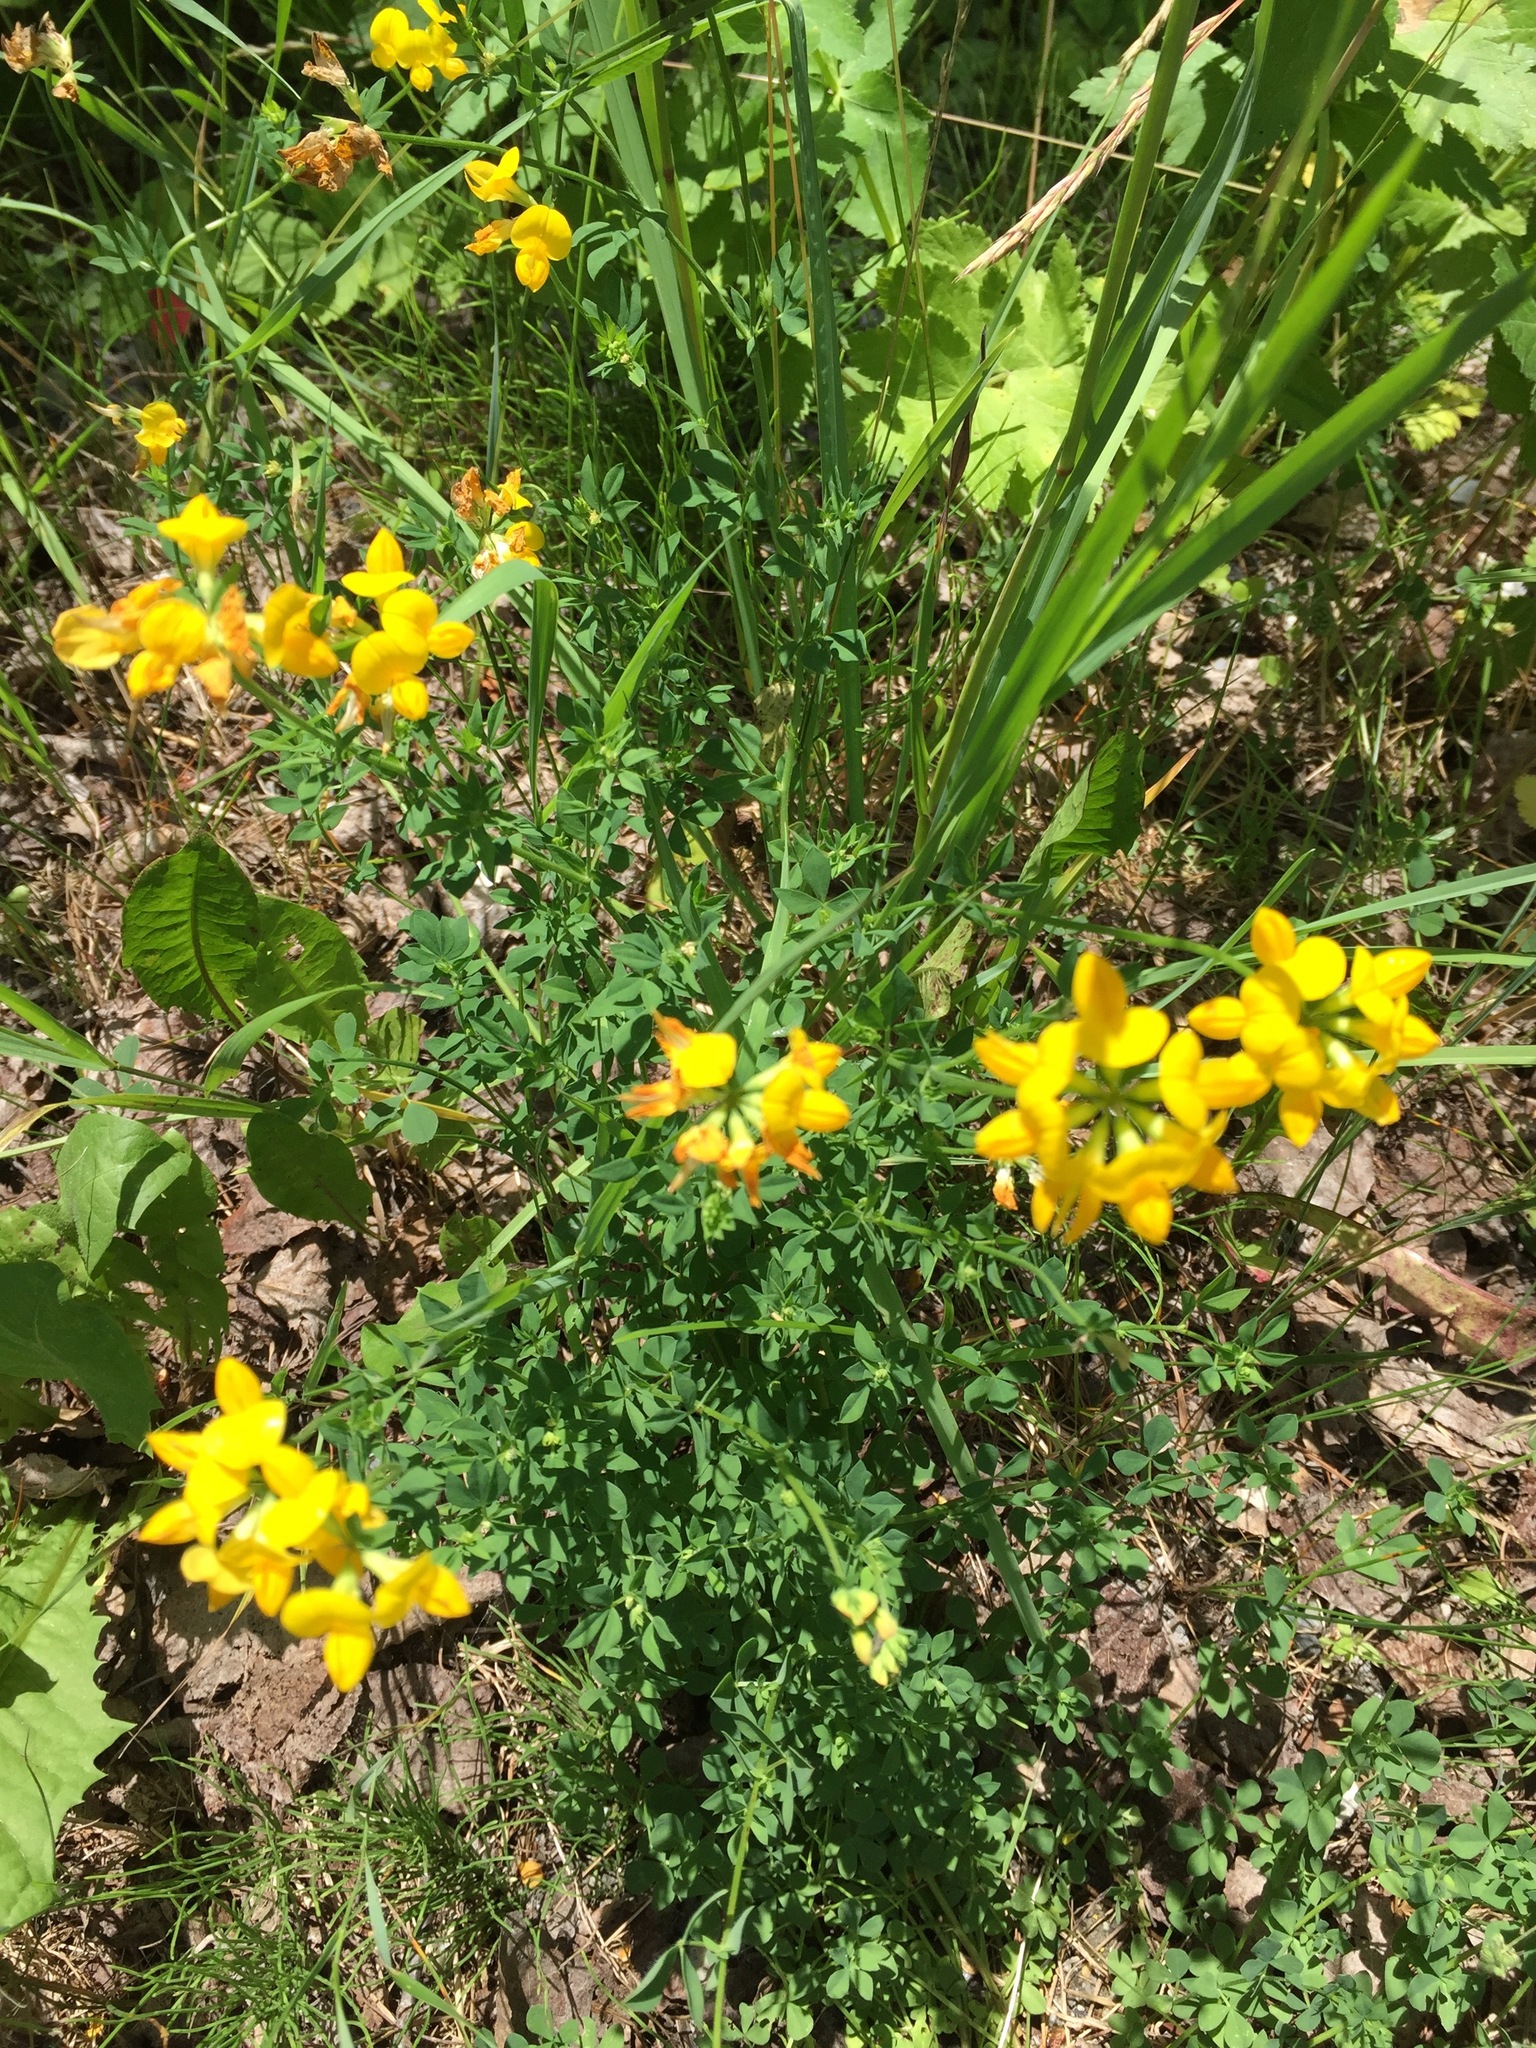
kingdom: Plantae
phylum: Tracheophyta
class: Magnoliopsida
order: Fabales
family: Fabaceae
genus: Lotus
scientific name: Lotus corniculatus
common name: Common bird's-foot-trefoil
